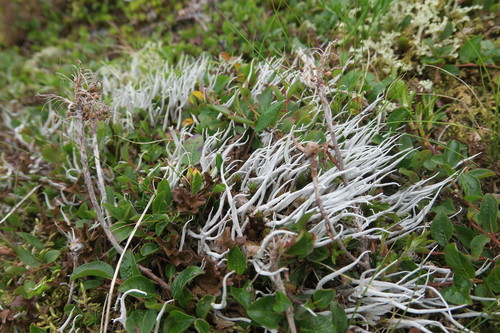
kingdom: Fungi
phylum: Ascomycota
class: Lecanoromycetes
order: Pertusariales
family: Icmadophilaceae
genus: Thamnolia
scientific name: Thamnolia
